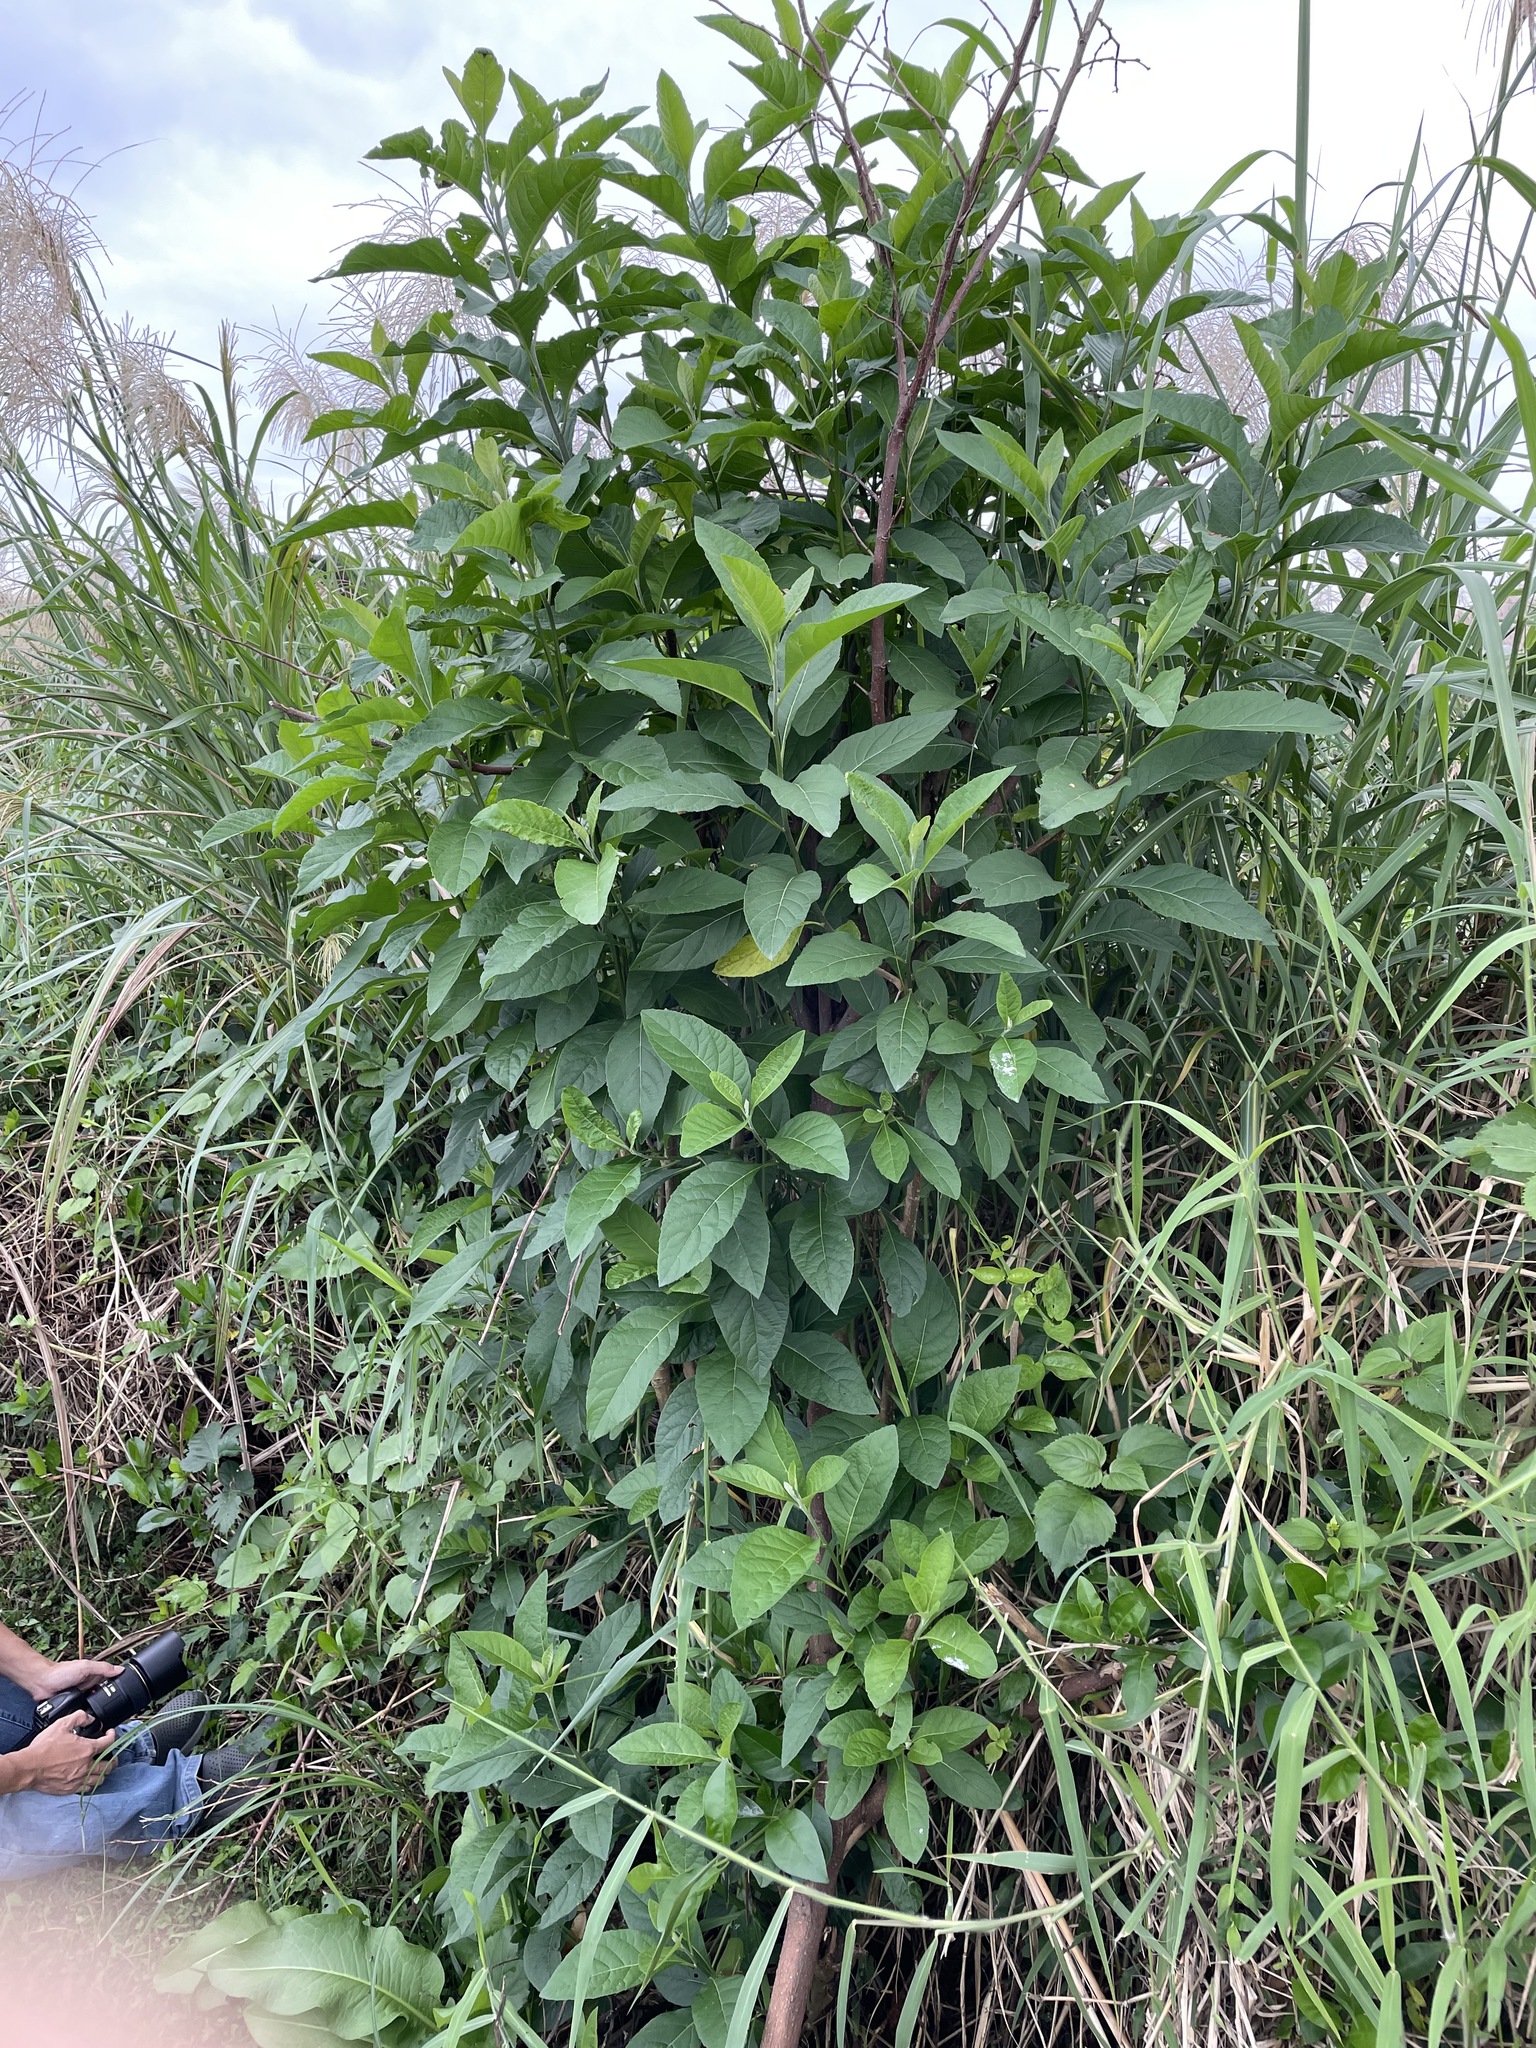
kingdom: Plantae
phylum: Tracheophyta
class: Magnoliopsida
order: Asterales
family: Asteraceae
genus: Gymnanthemum
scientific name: Gymnanthemum amygdalinum
